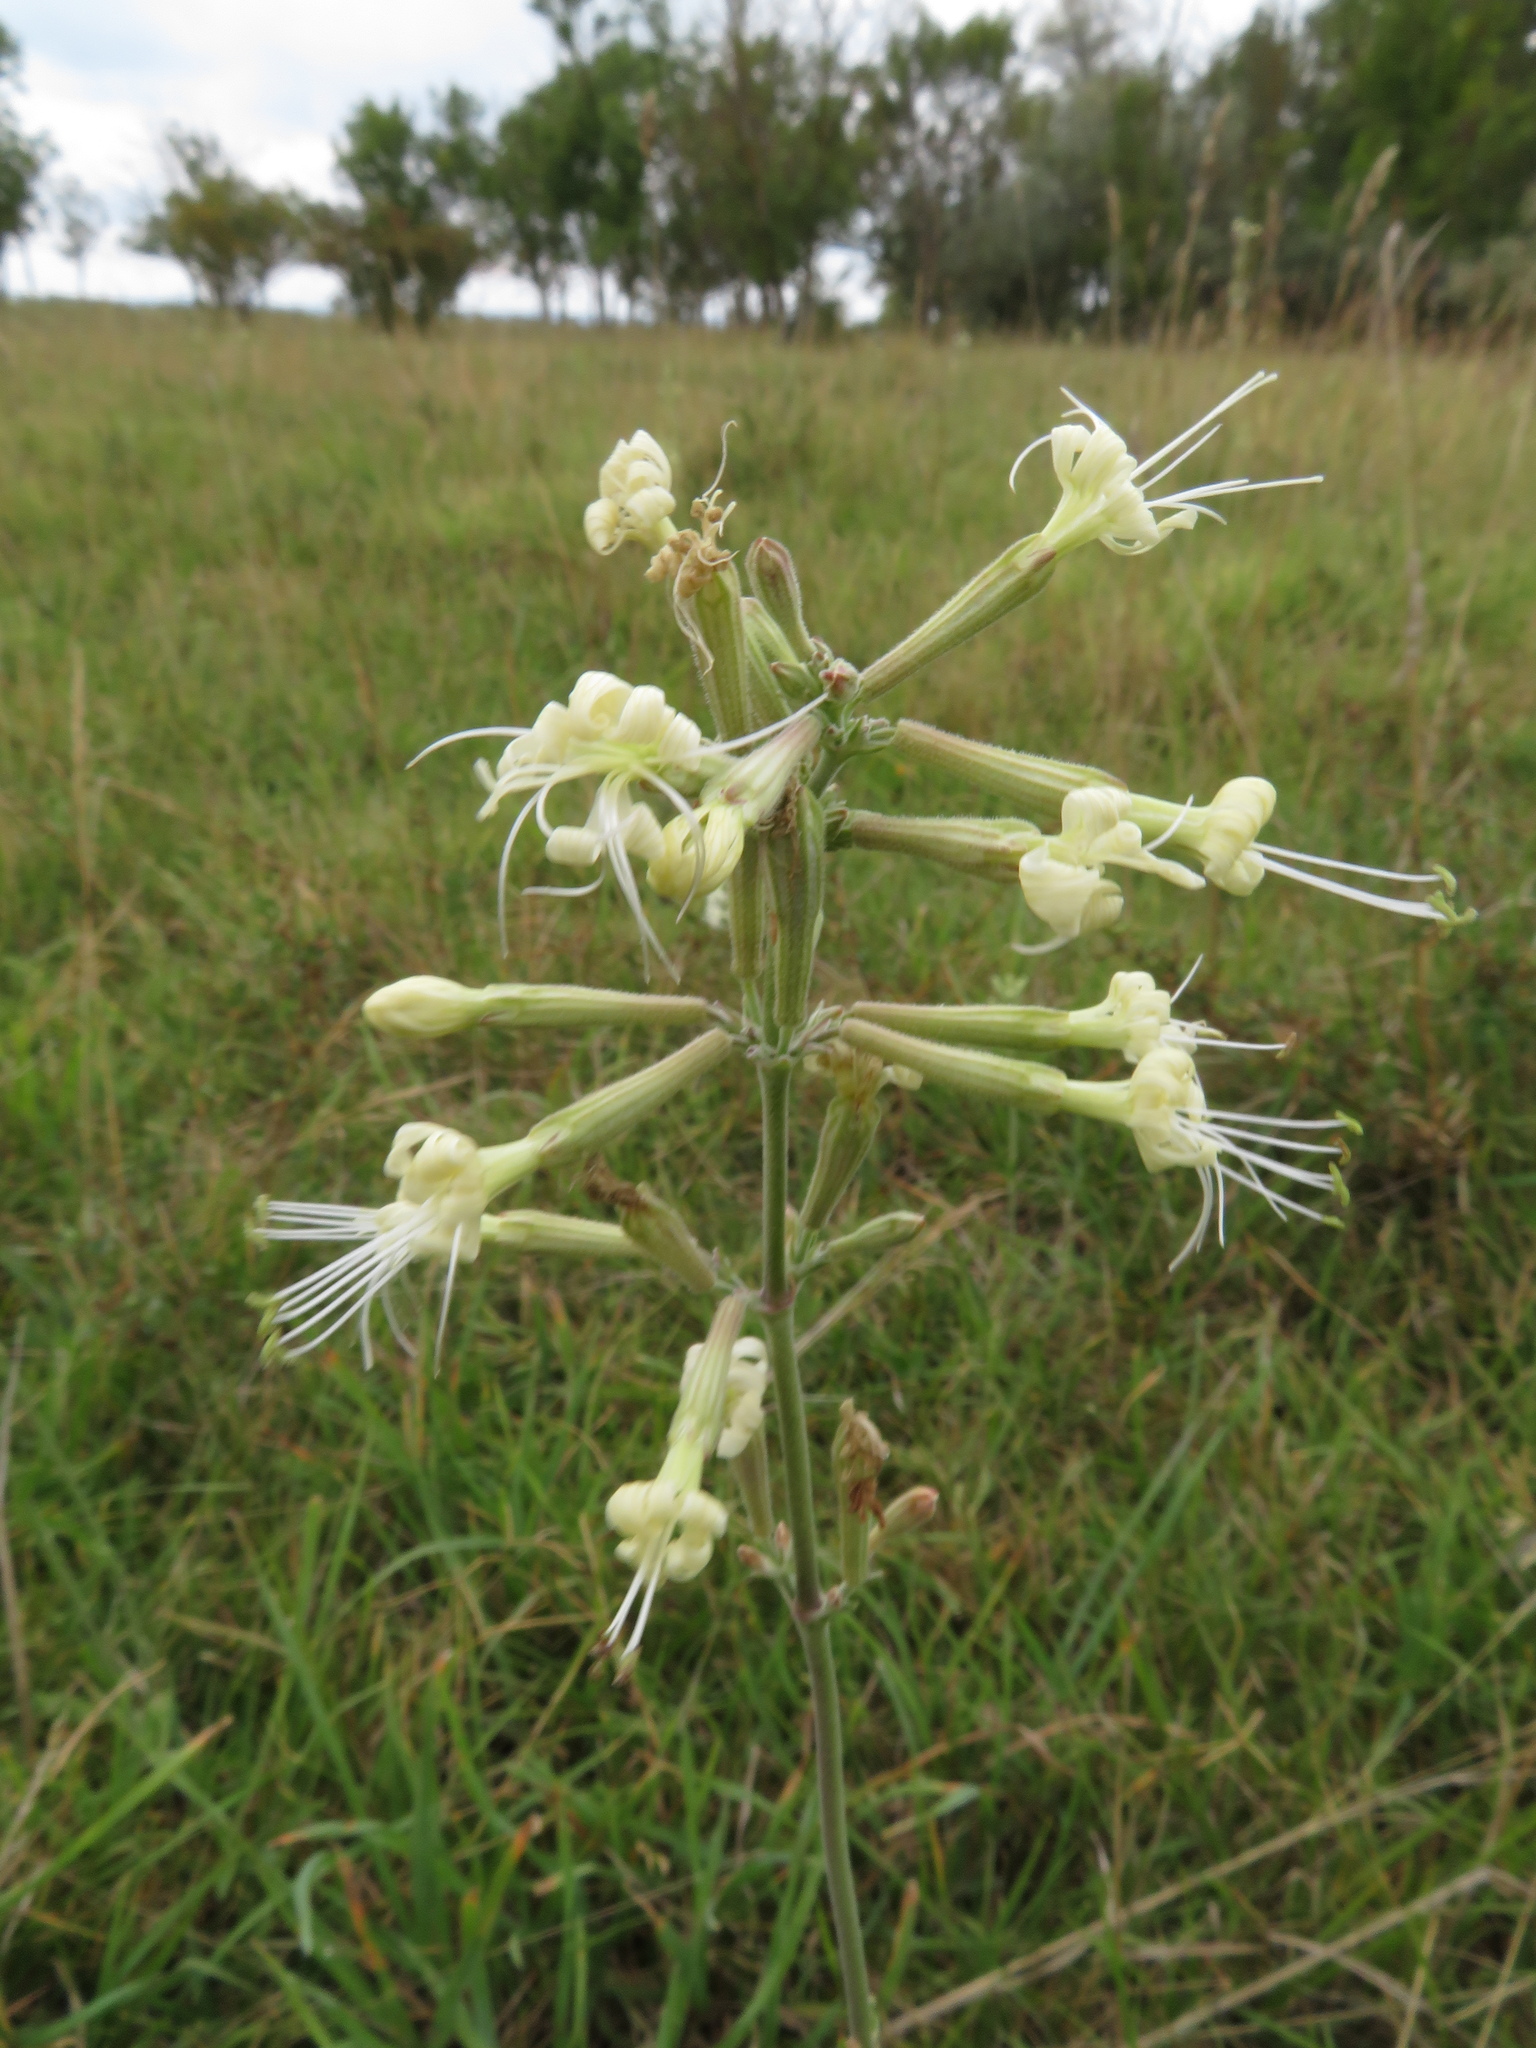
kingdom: Plantae
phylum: Tracheophyta
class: Magnoliopsida
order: Caryophyllales
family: Caryophyllaceae
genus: Silene
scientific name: Silene multiflora
